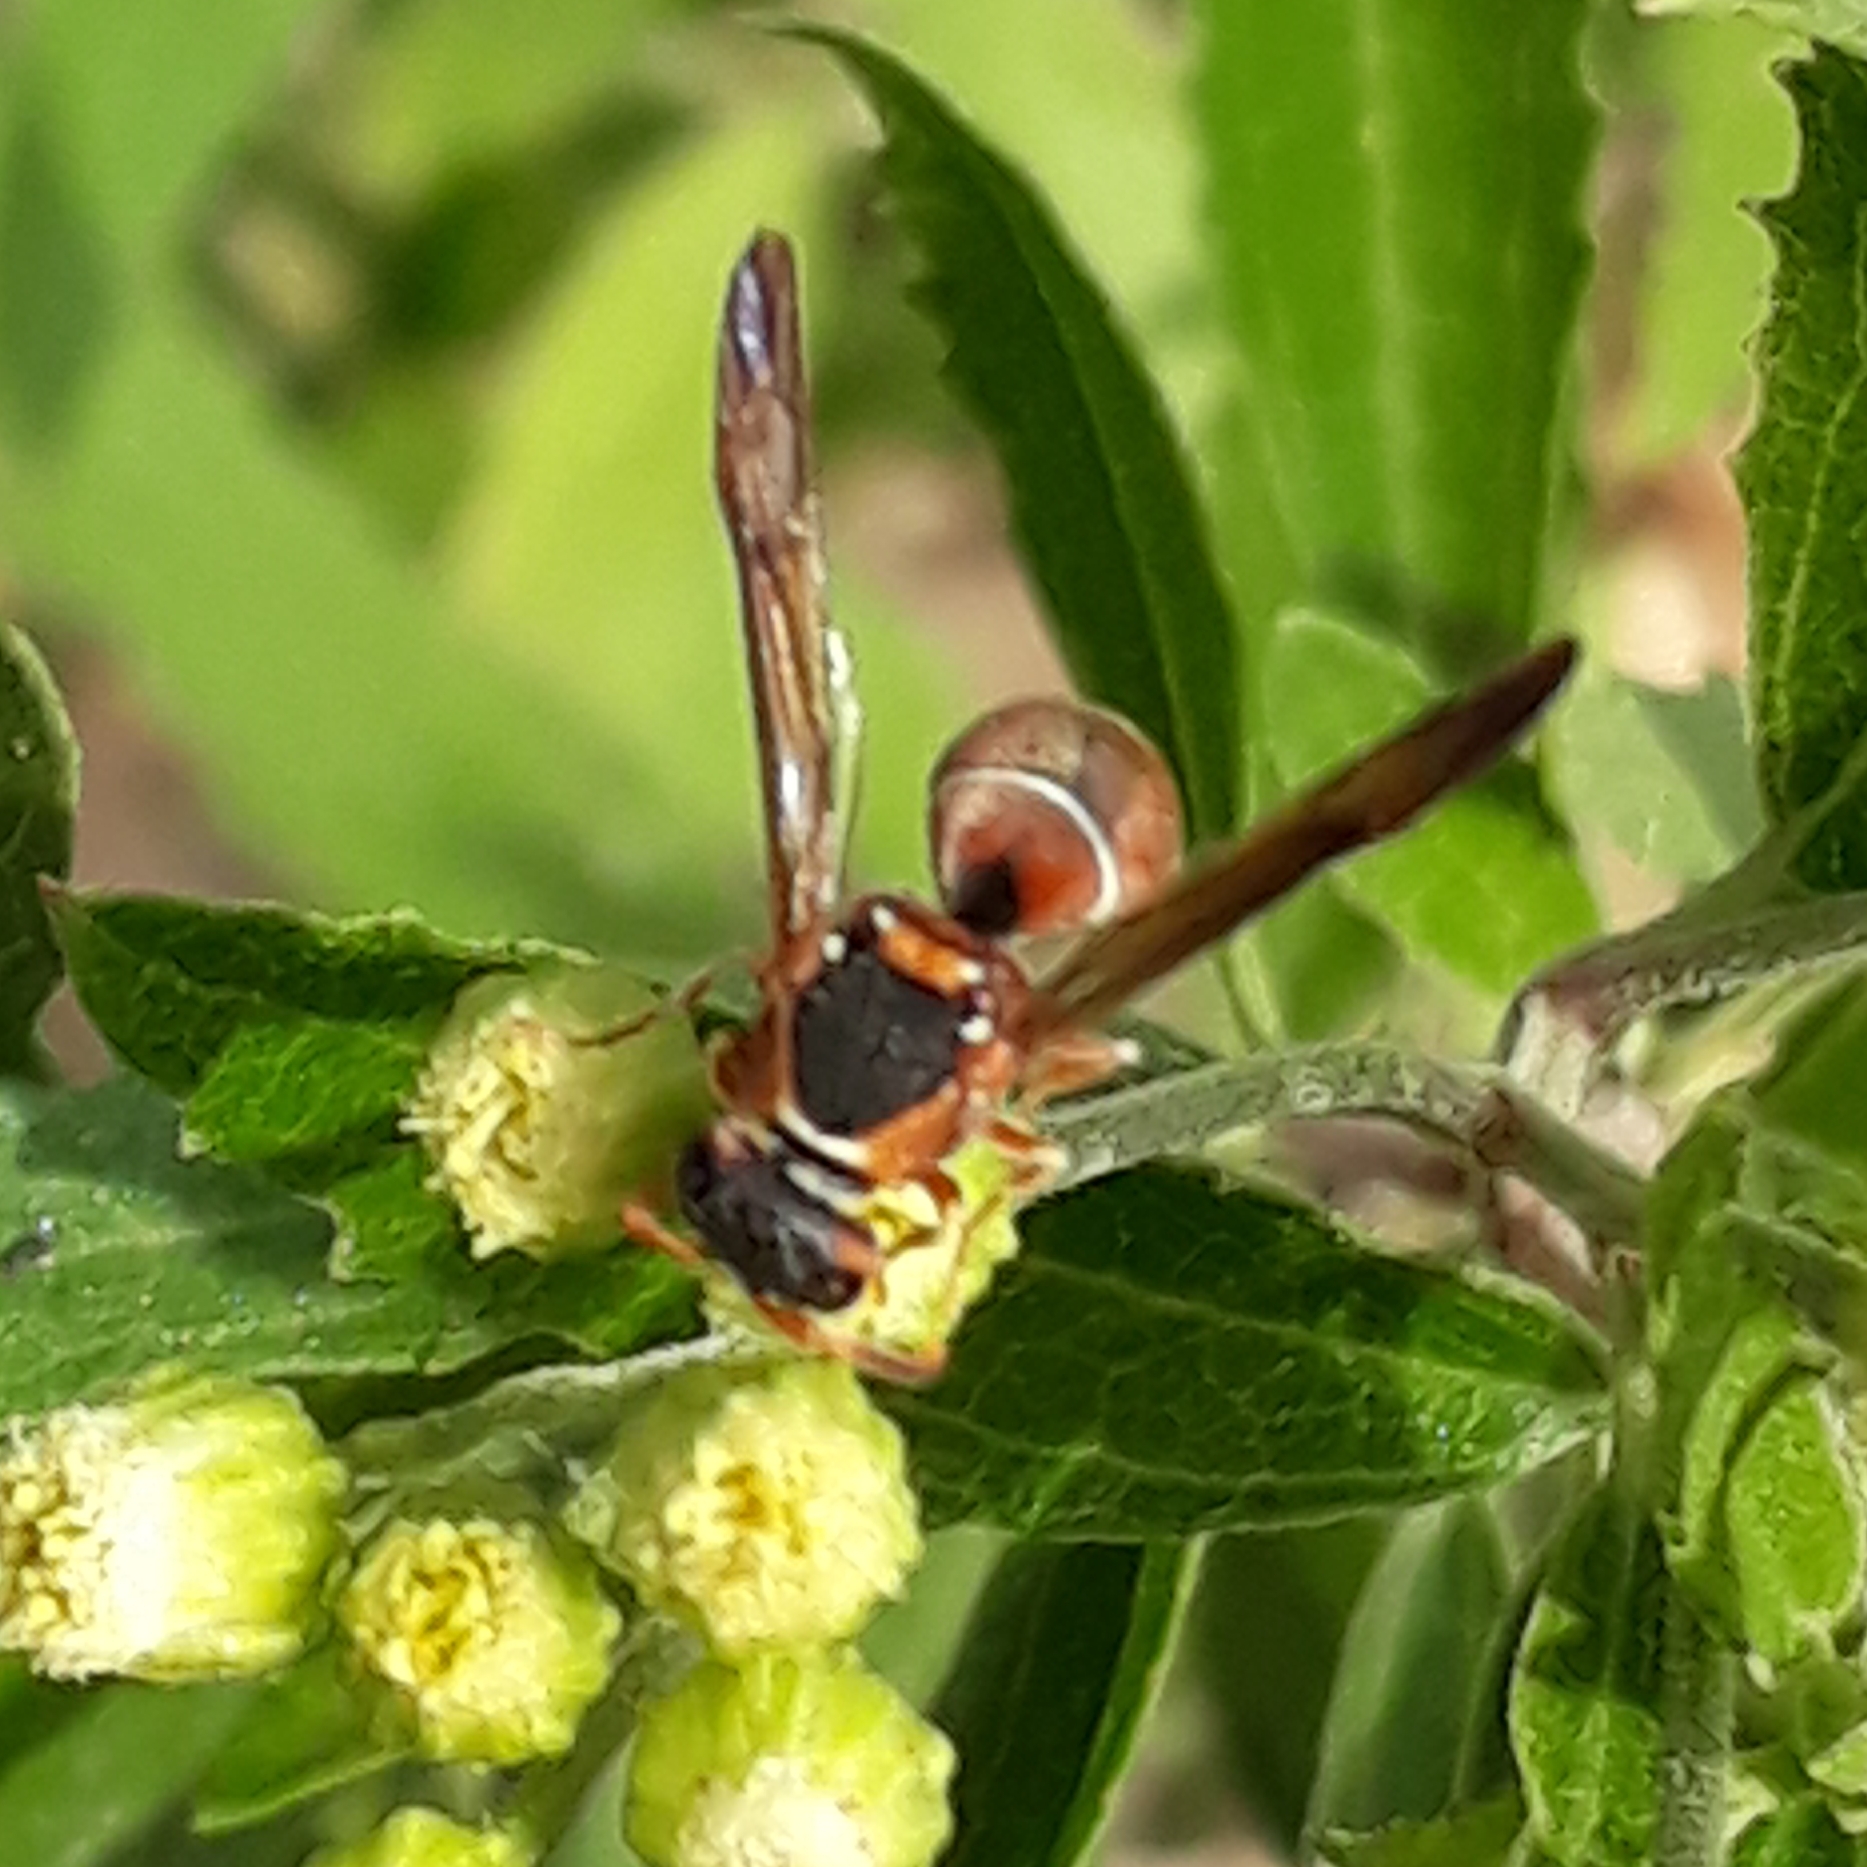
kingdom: Animalia
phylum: Arthropoda
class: Insecta
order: Hymenoptera
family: Eumenidae
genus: Antepipona
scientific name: Antepipona
